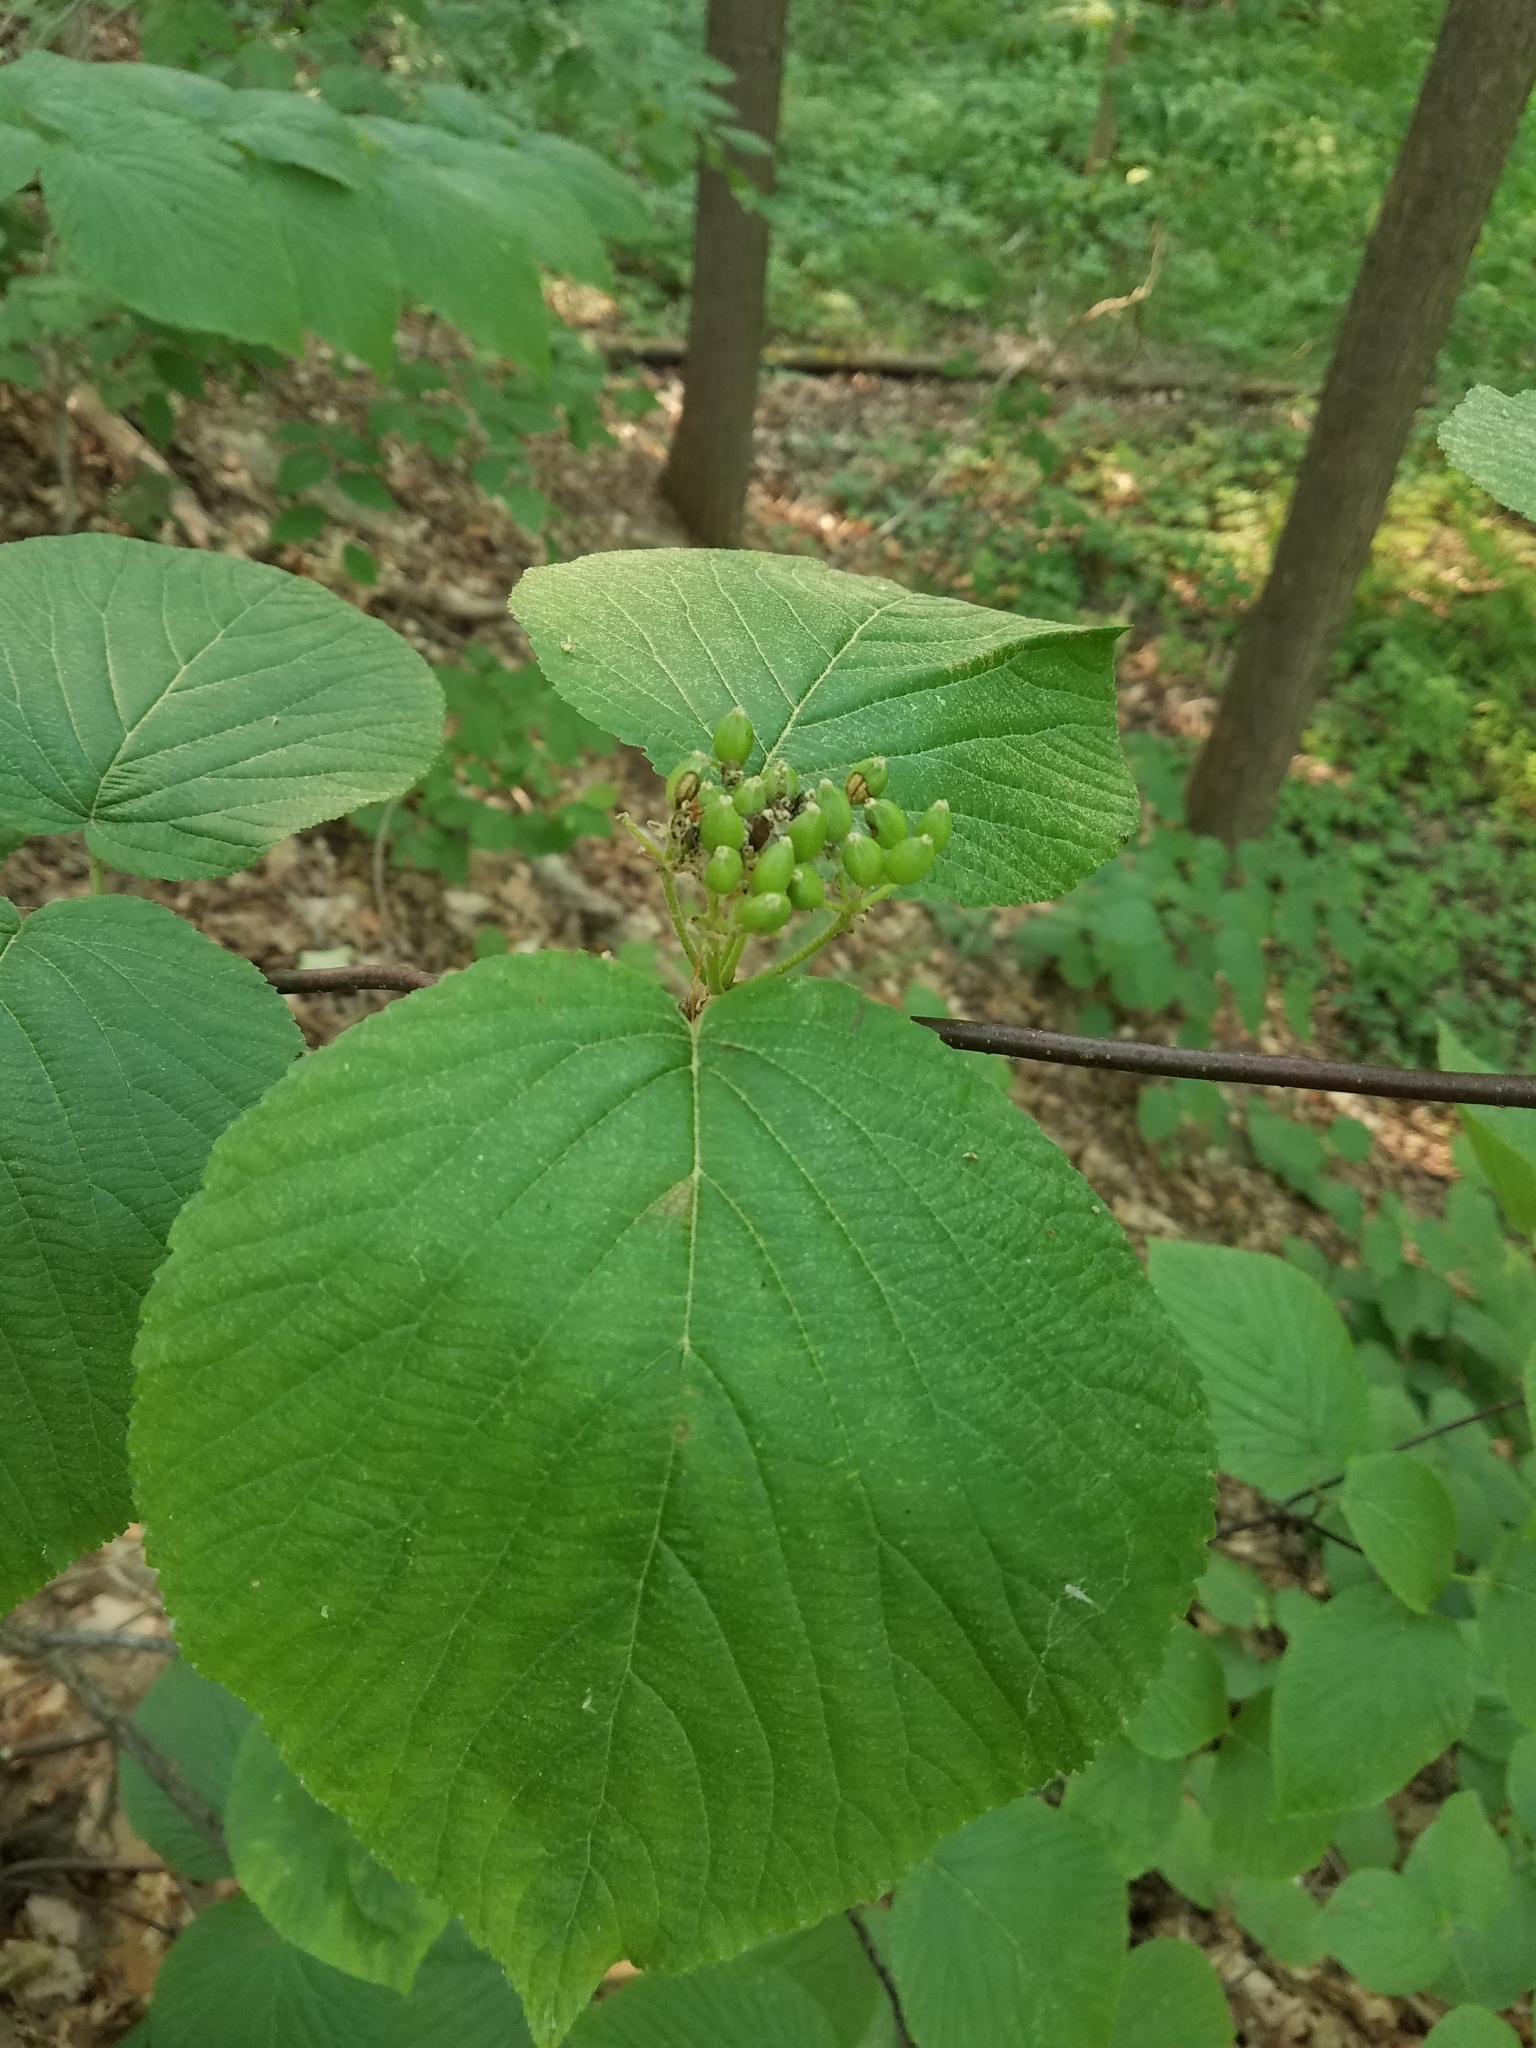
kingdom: Plantae
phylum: Tracheophyta
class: Magnoliopsida
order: Dipsacales
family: Viburnaceae
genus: Viburnum
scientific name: Viburnum lantanoides
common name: Hobblebush
